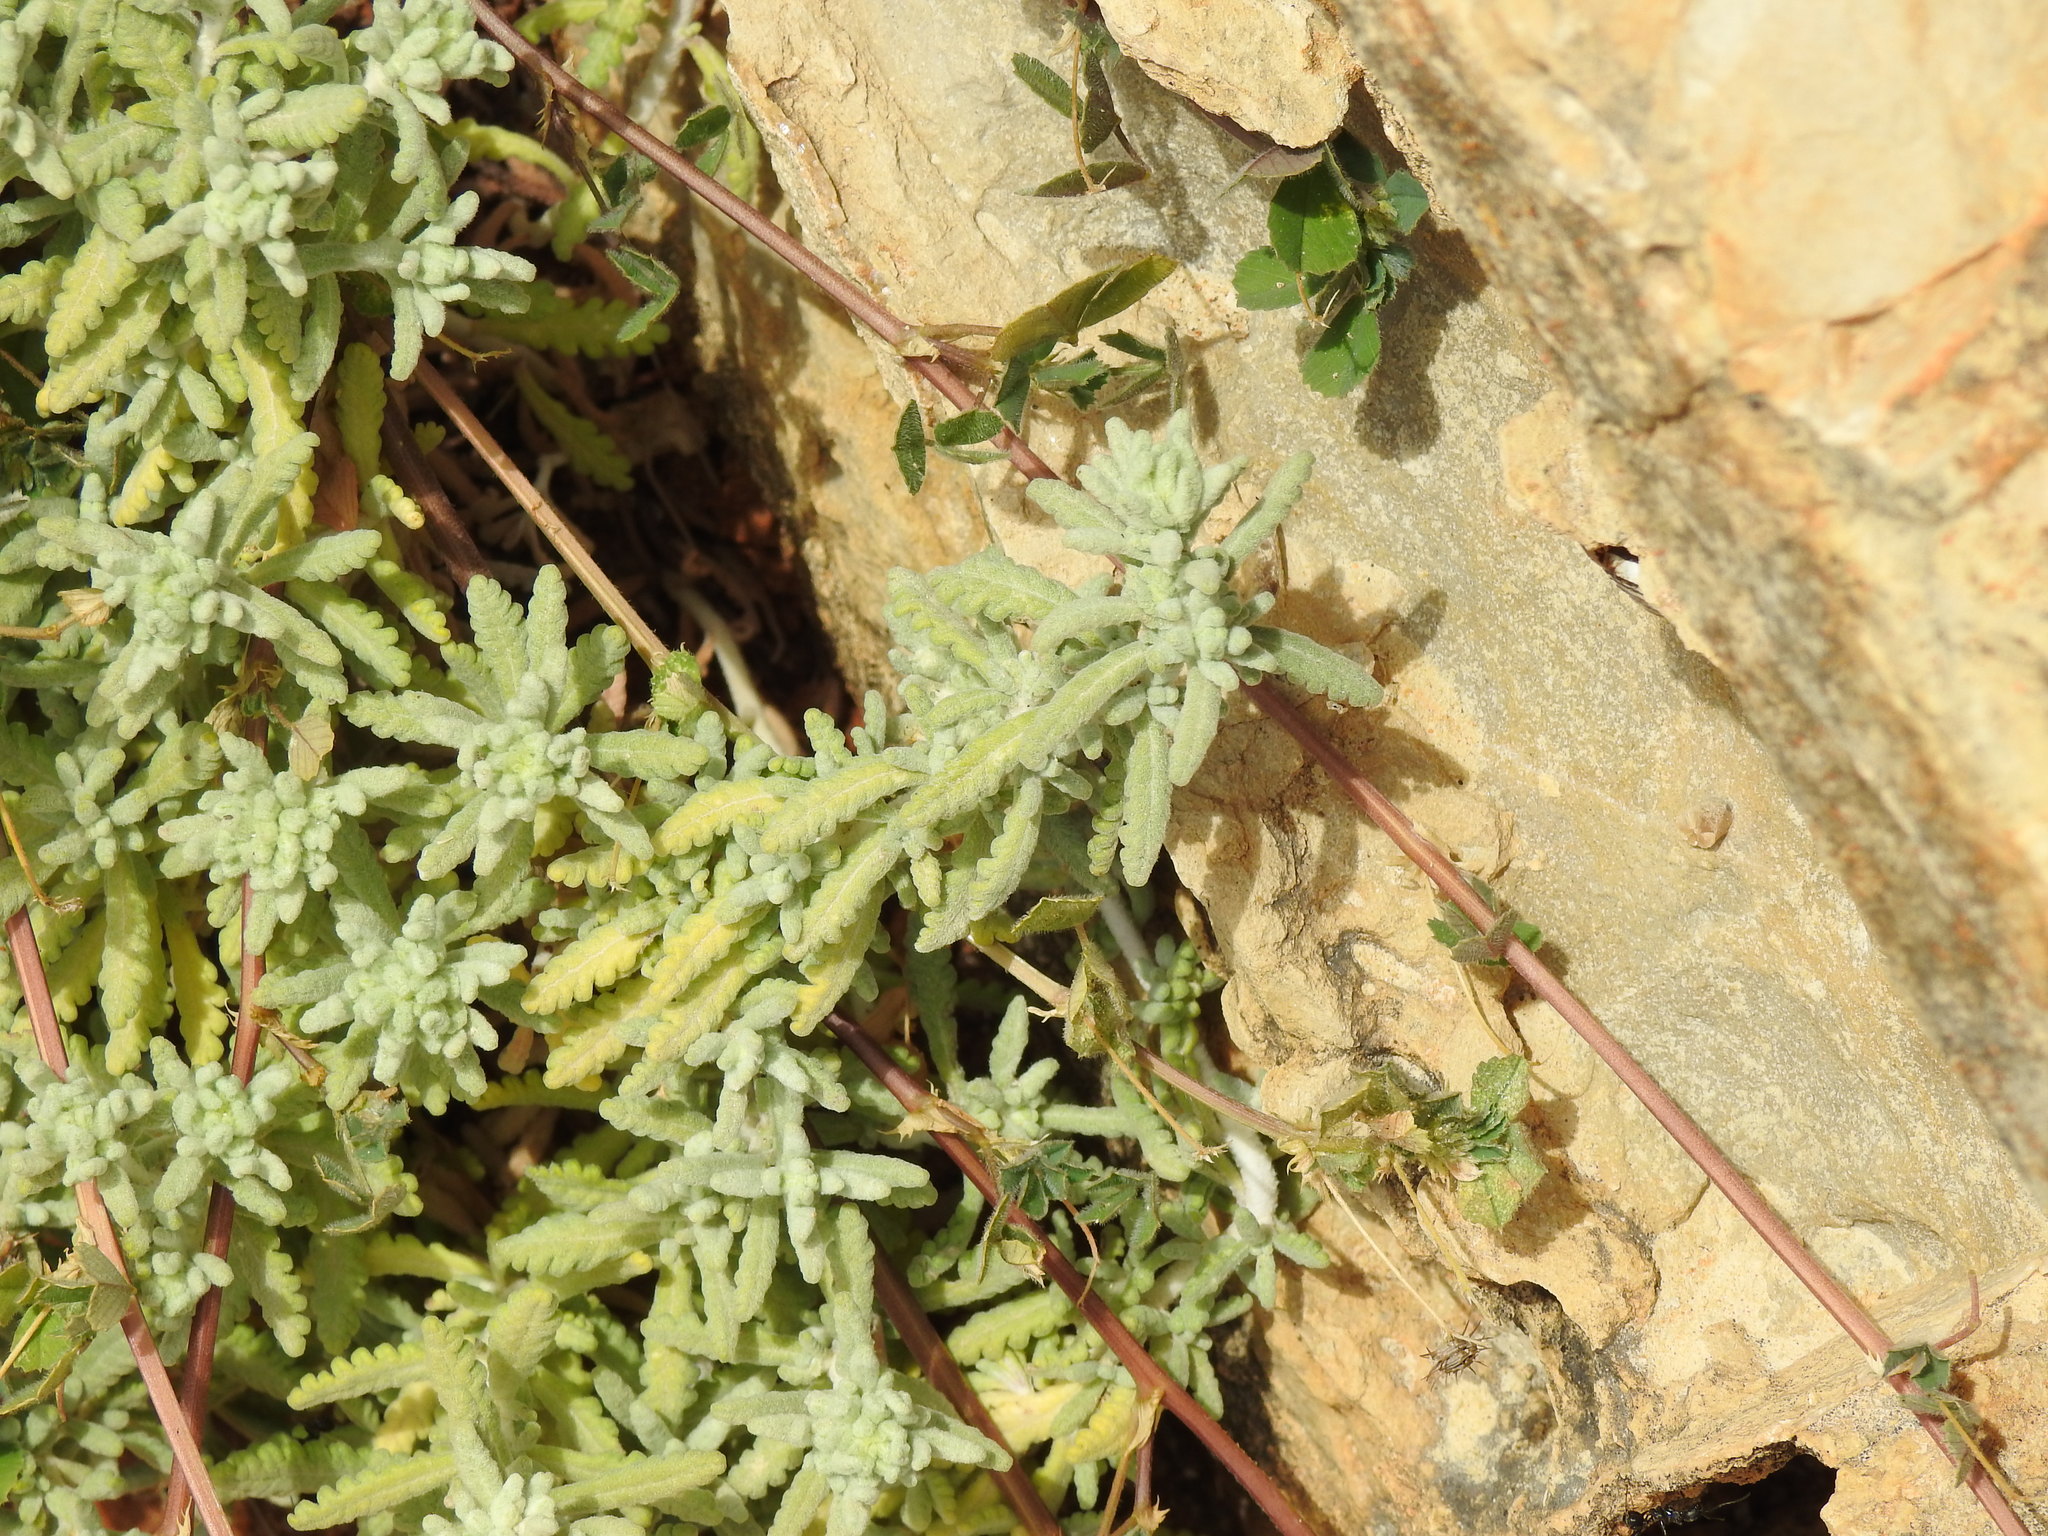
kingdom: Plantae
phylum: Tracheophyta
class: Magnoliopsida
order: Lamiales
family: Lamiaceae
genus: Teucrium
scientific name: Teucrium vincentinum
